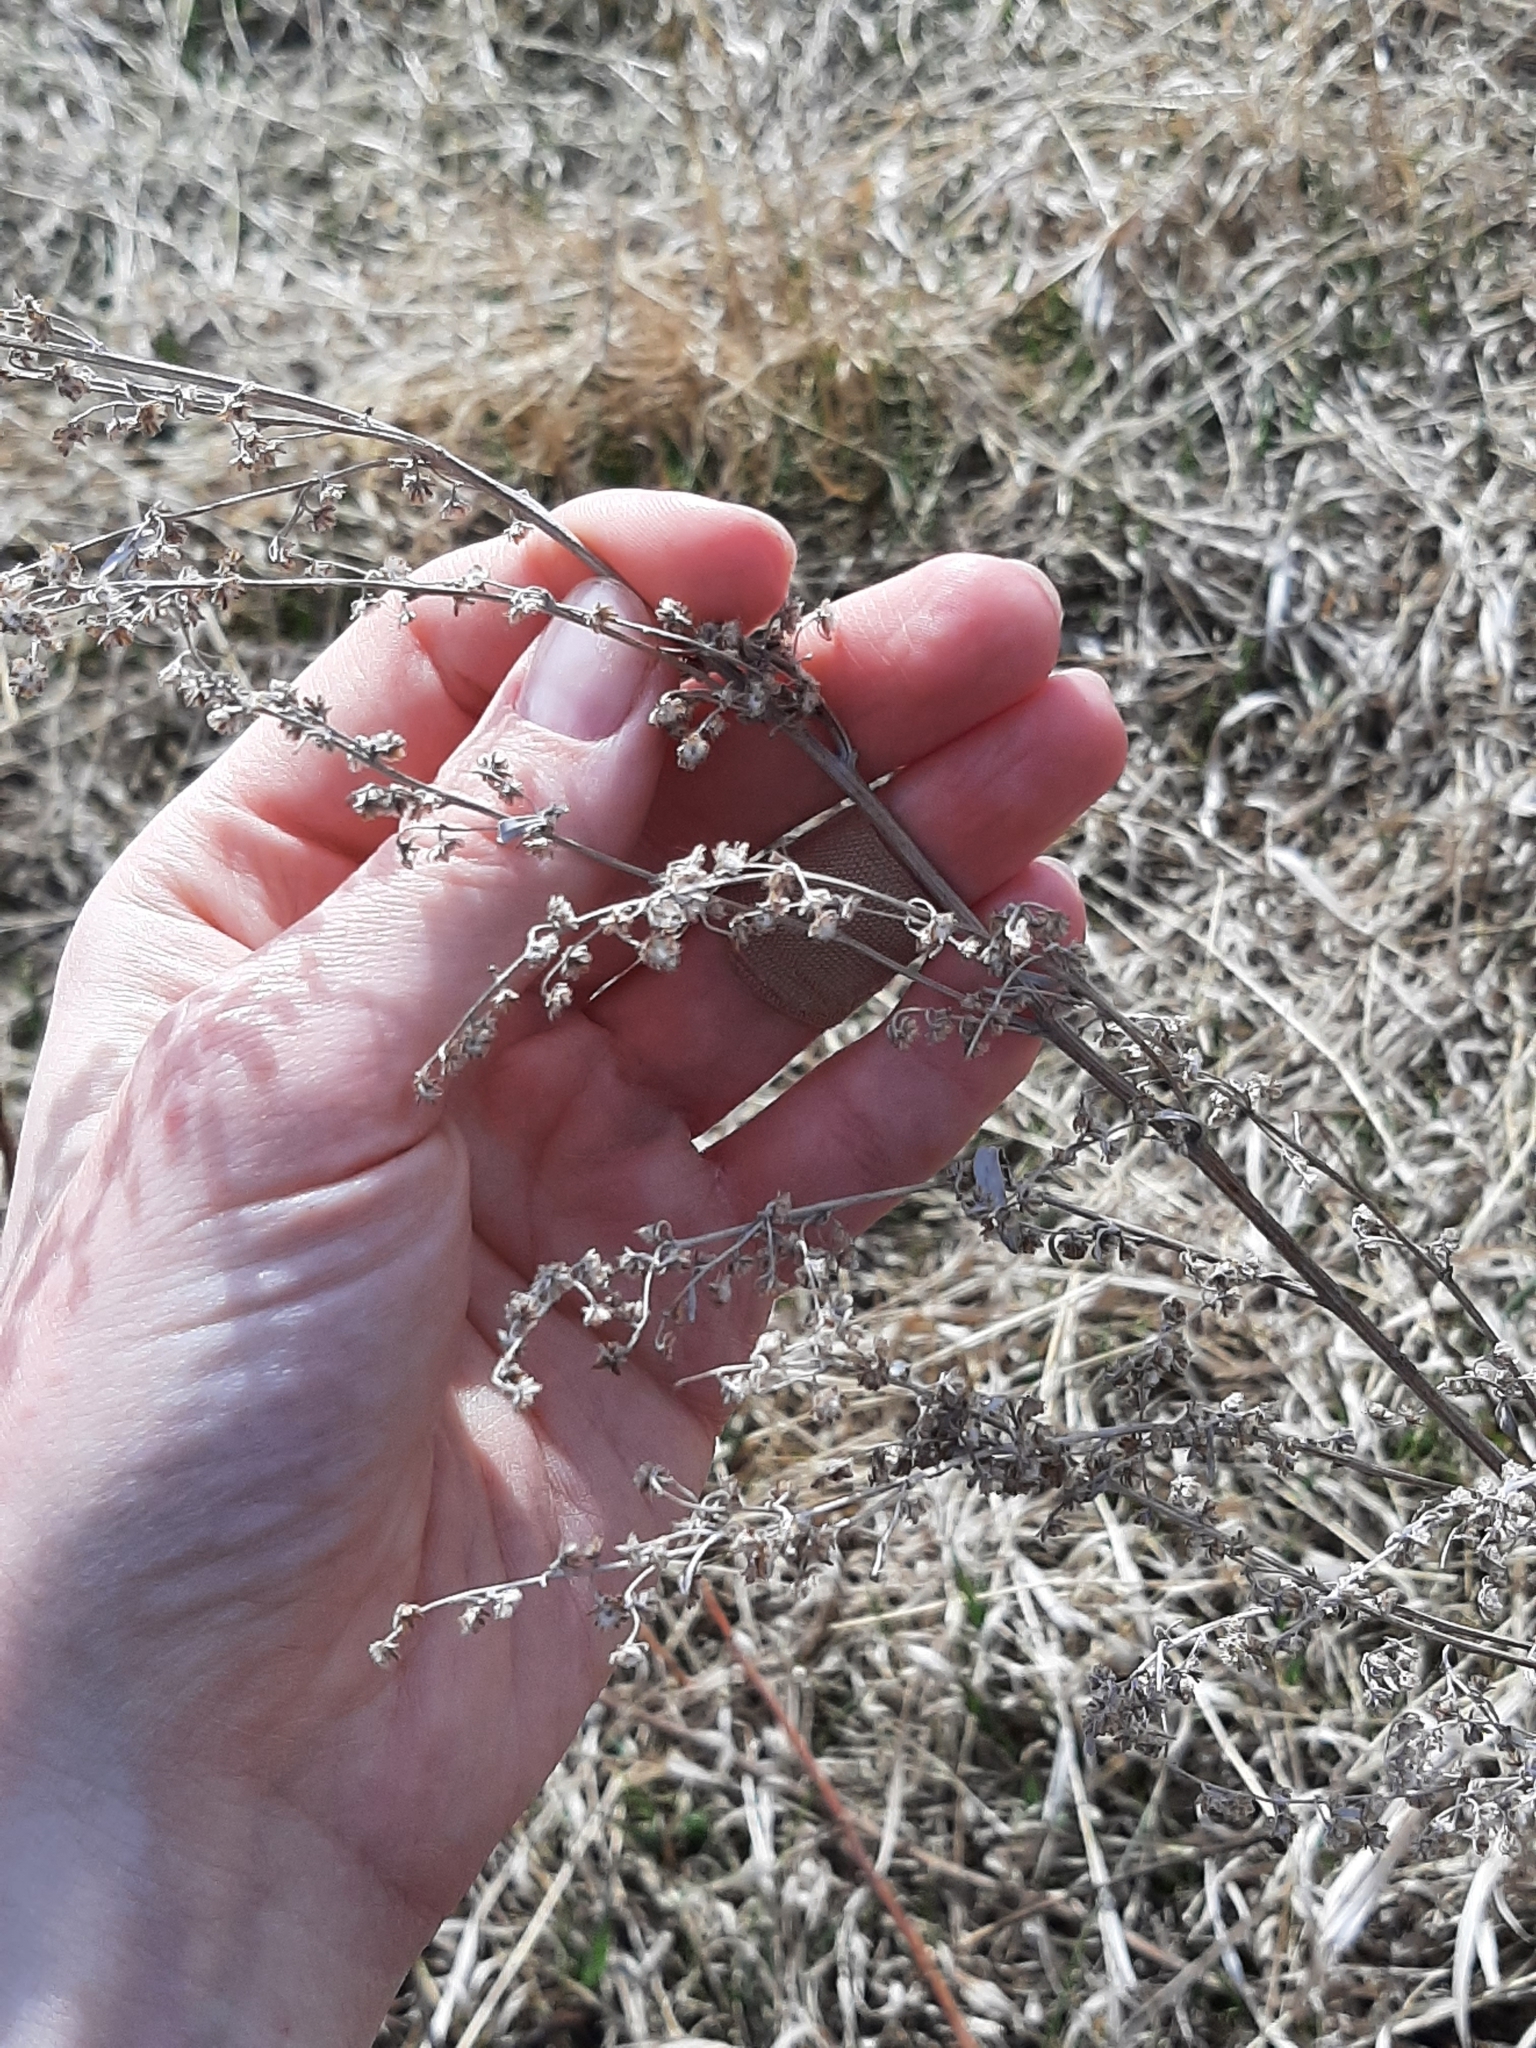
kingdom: Plantae
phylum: Tracheophyta
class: Magnoliopsida
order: Asterales
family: Asteraceae
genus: Artemisia
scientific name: Artemisia absinthium
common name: Wormwood
